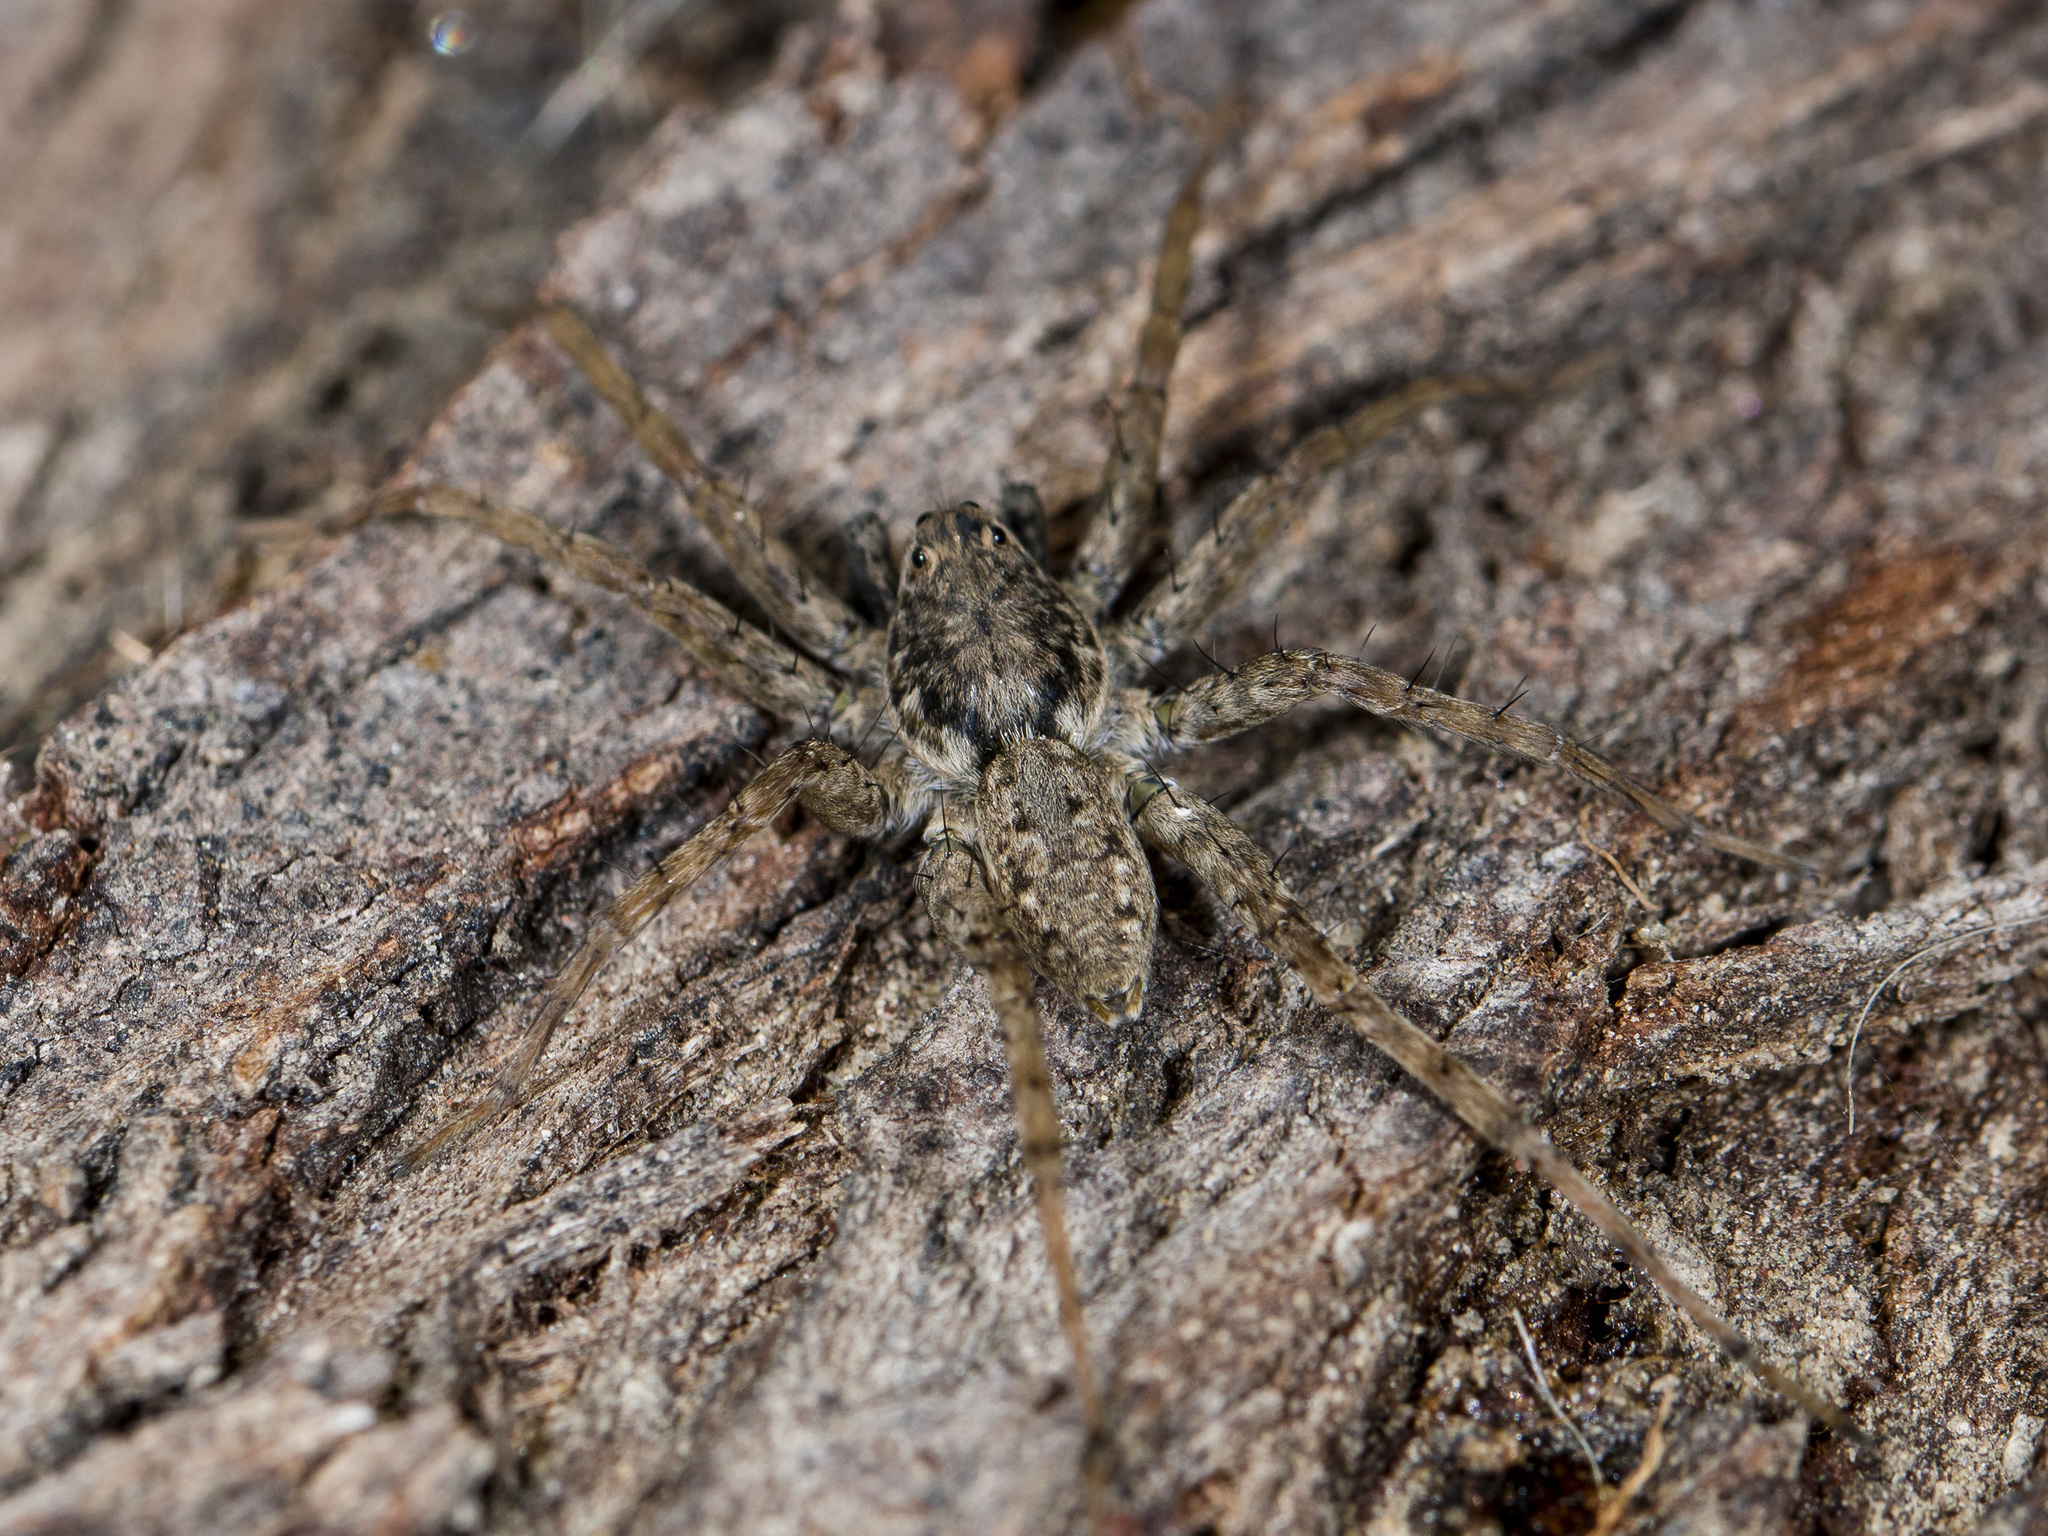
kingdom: Animalia
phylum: Arthropoda
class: Arachnida
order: Araneae
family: Lycosidae
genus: Pardosa
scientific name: Pardosa nebulosa
